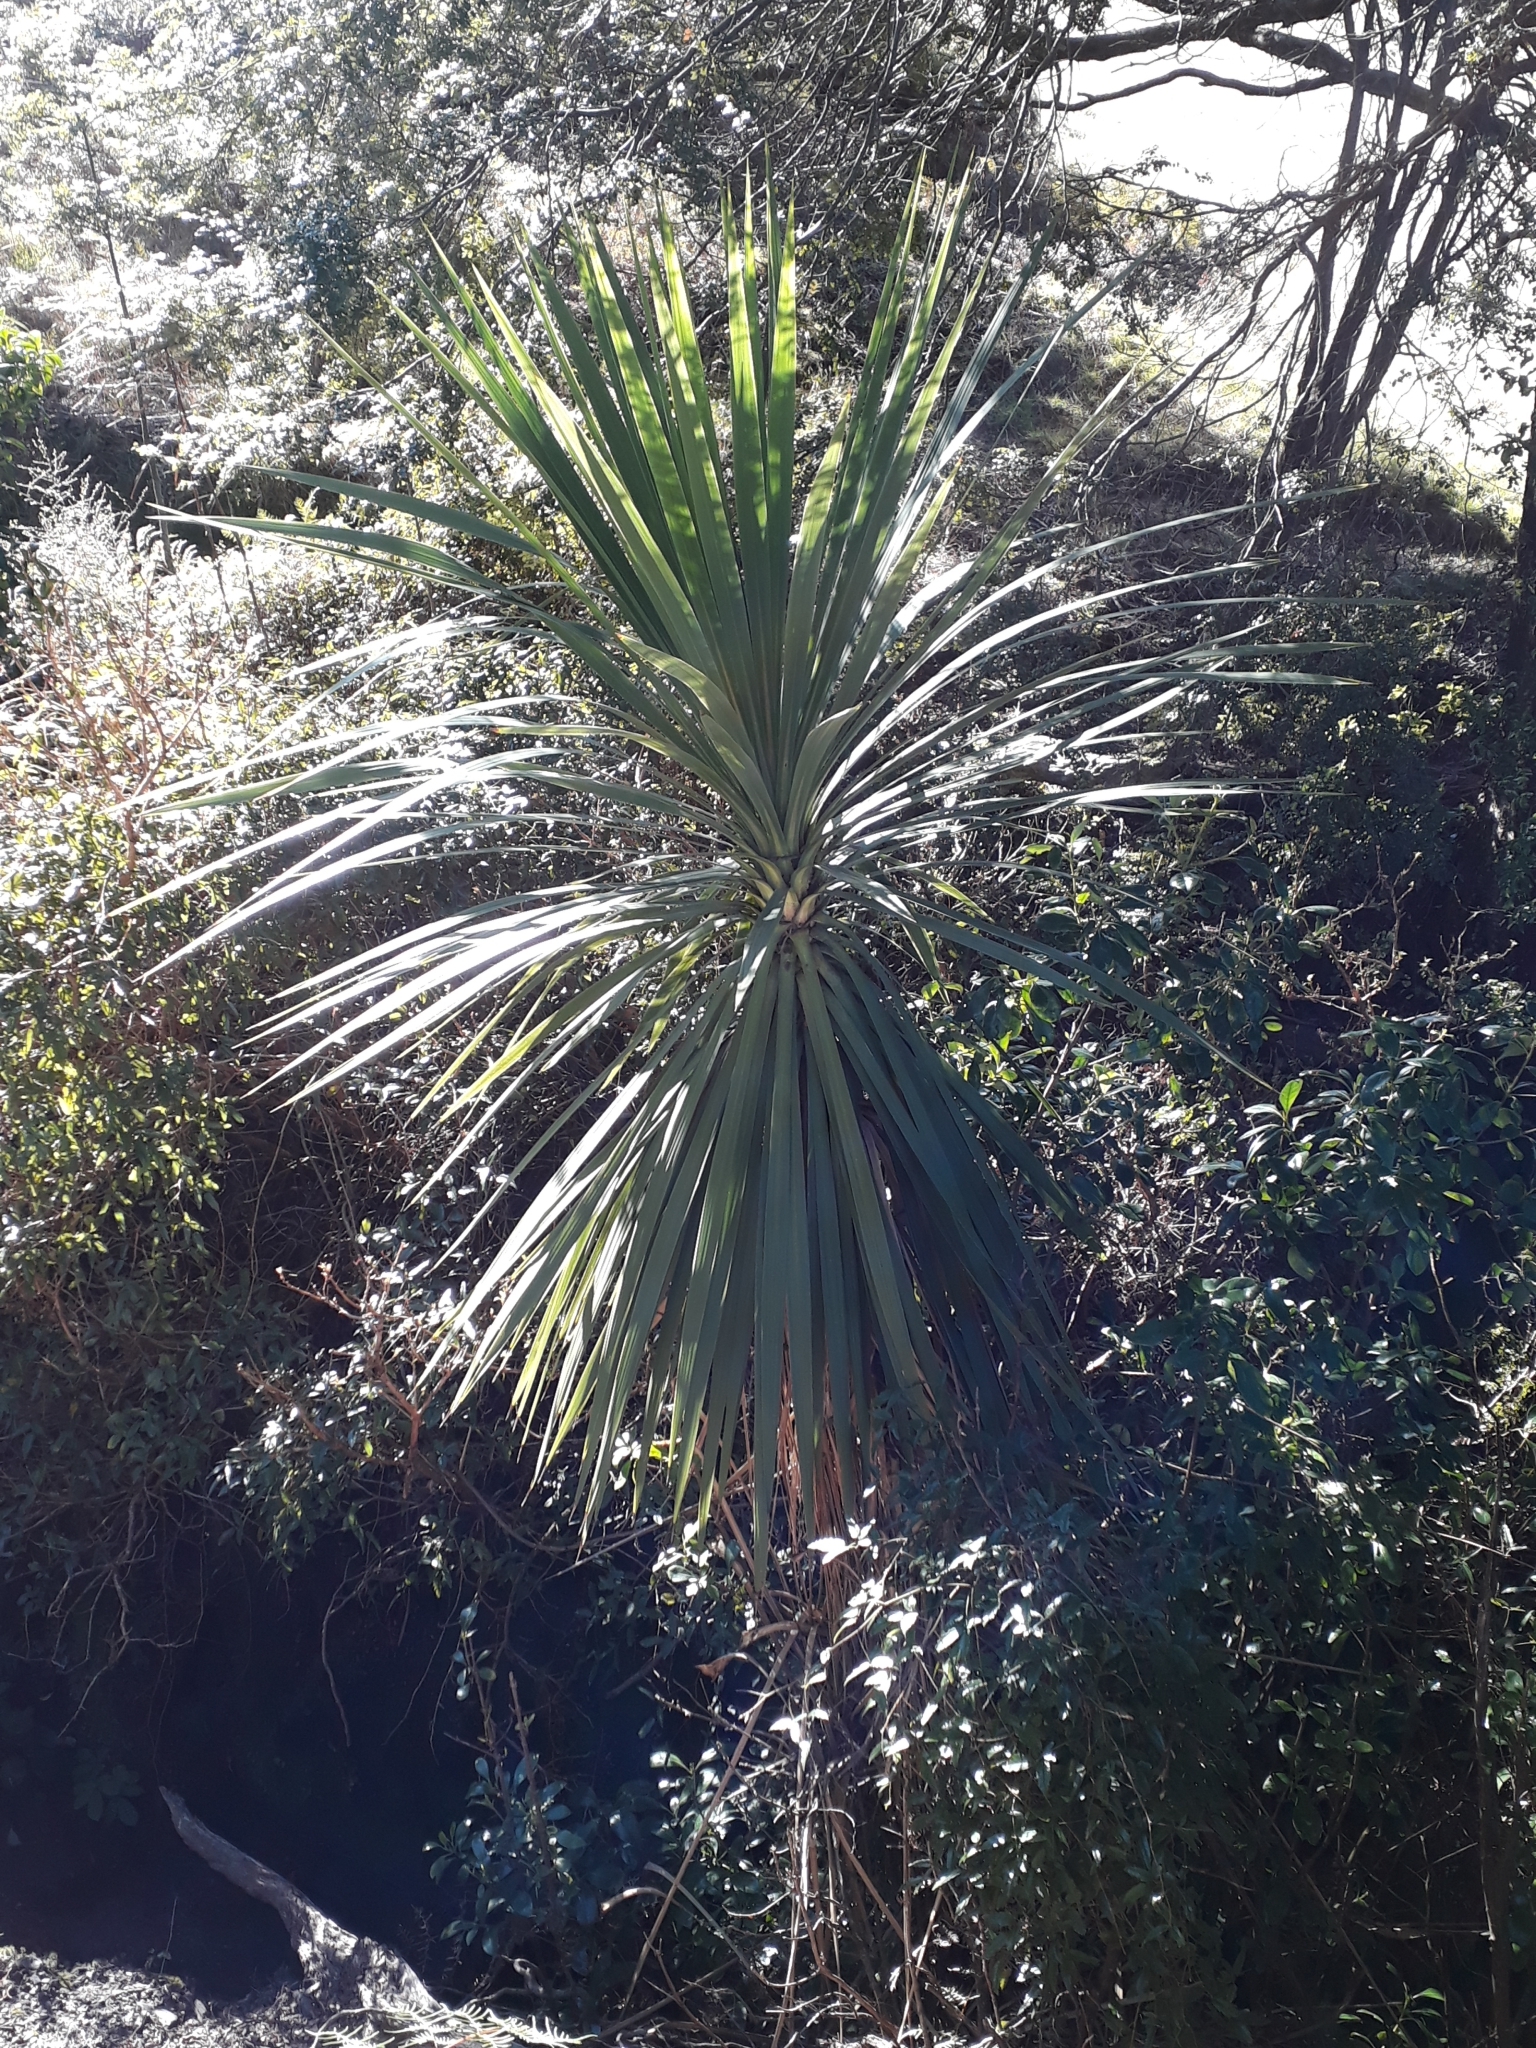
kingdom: Plantae
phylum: Tracheophyta
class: Liliopsida
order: Asparagales
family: Asparagaceae
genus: Cordyline
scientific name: Cordyline australis
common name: Cabbage-palm
